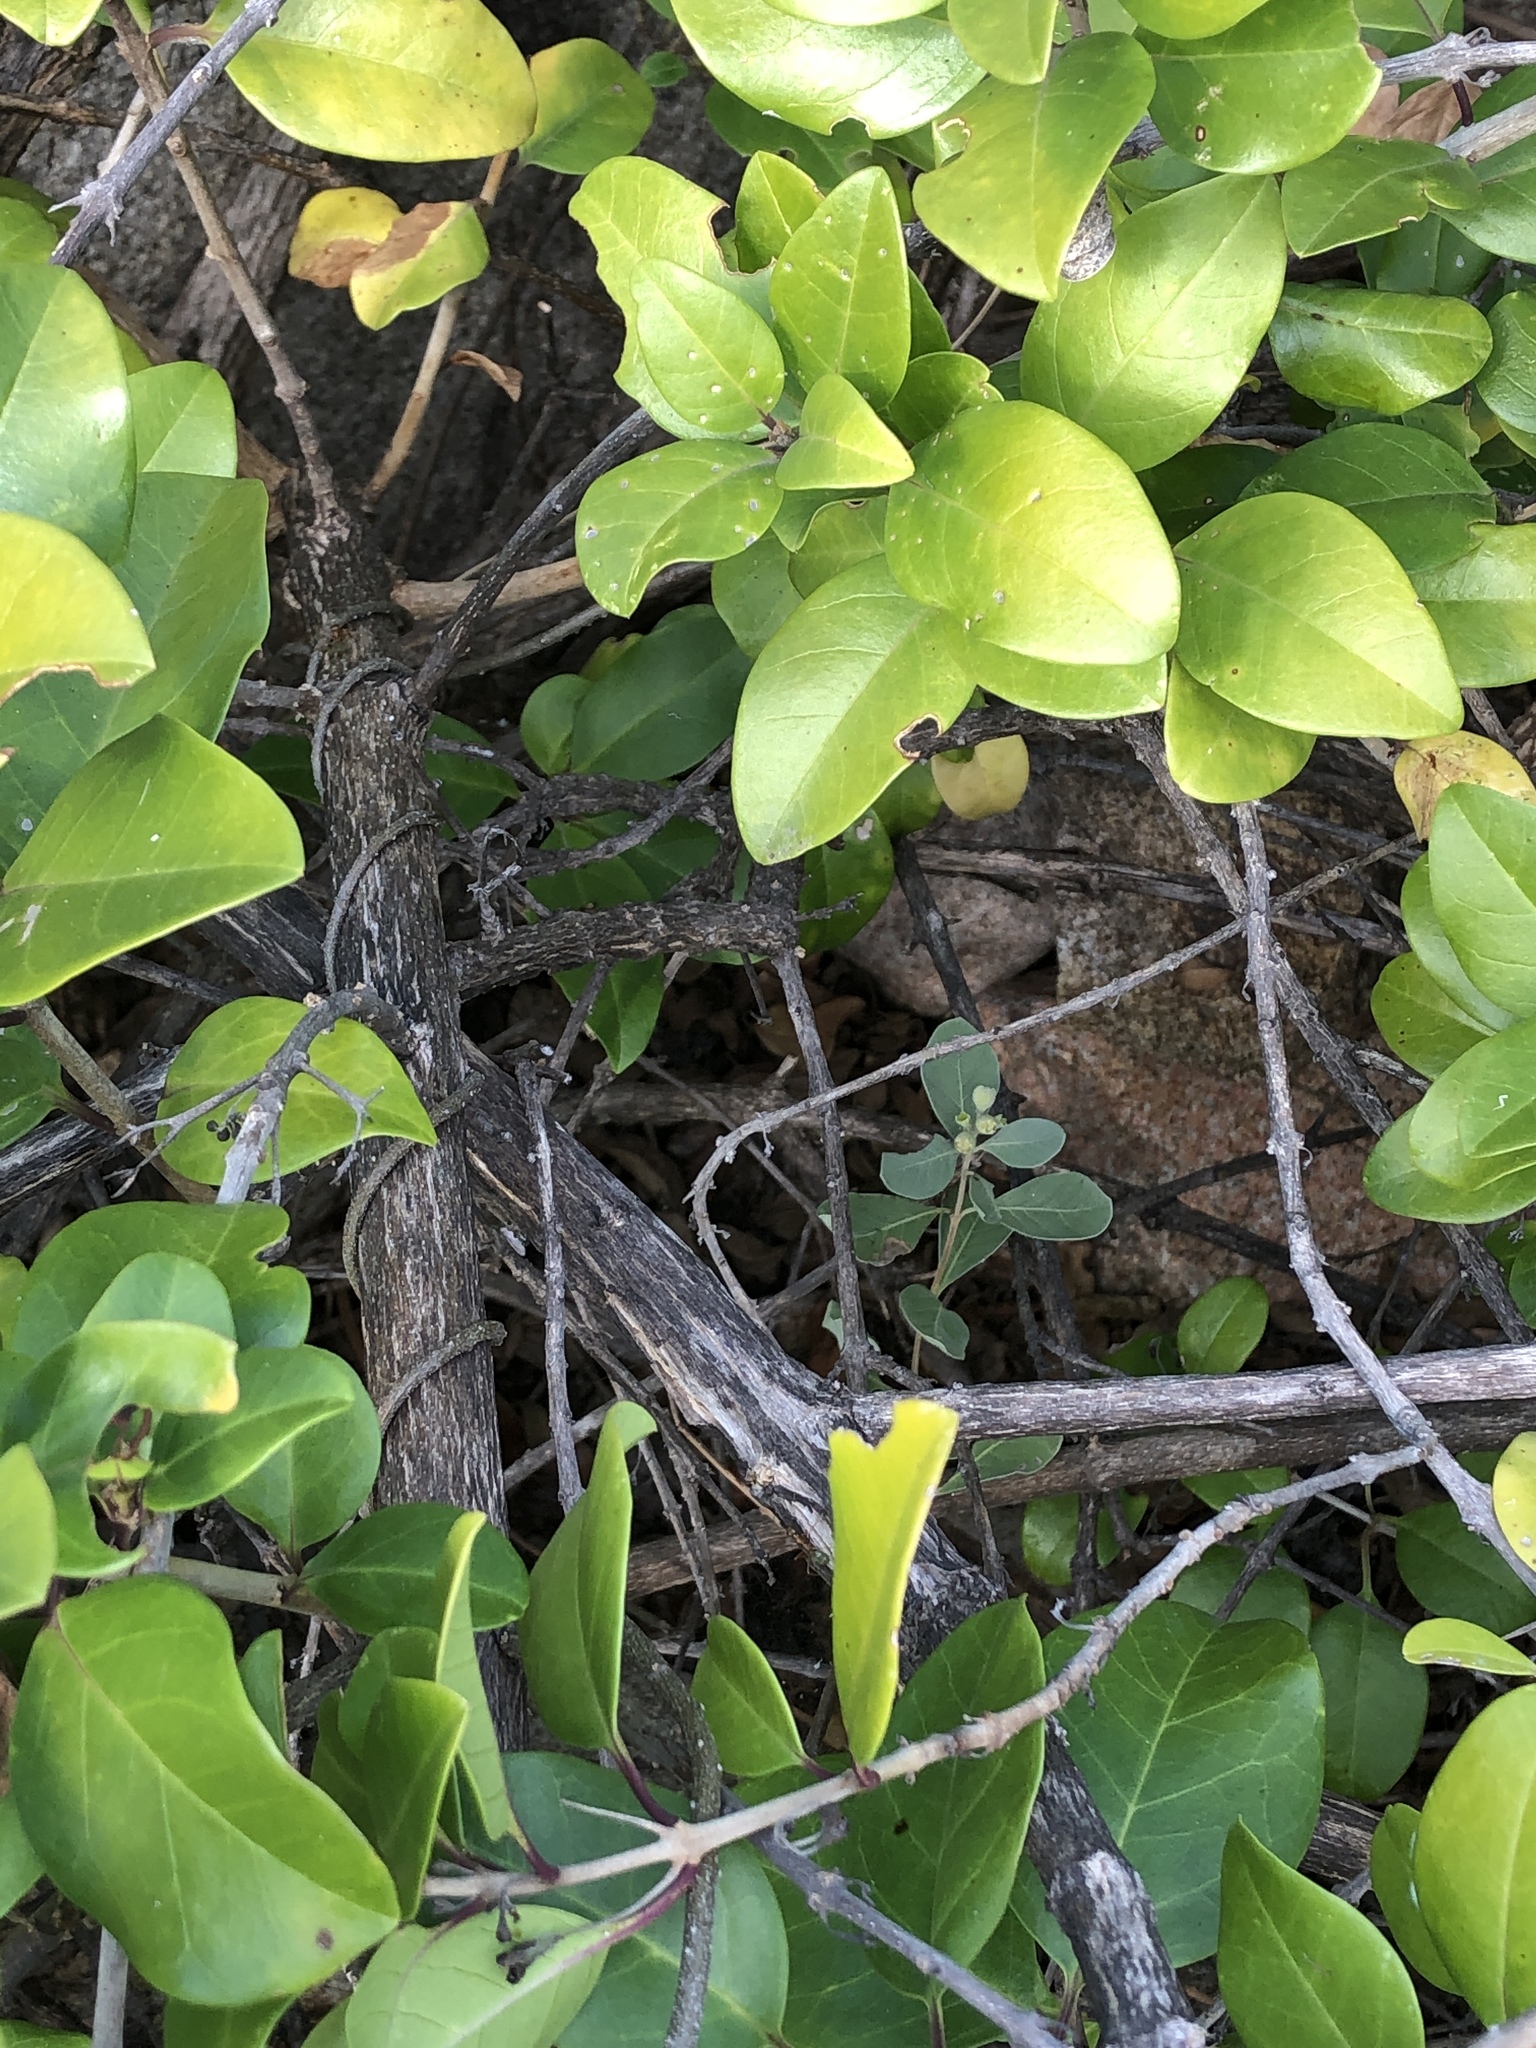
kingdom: Plantae
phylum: Tracheophyta
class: Magnoliopsida
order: Lamiales
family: Lamiaceae
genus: Volkameria
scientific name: Volkameria inermis
